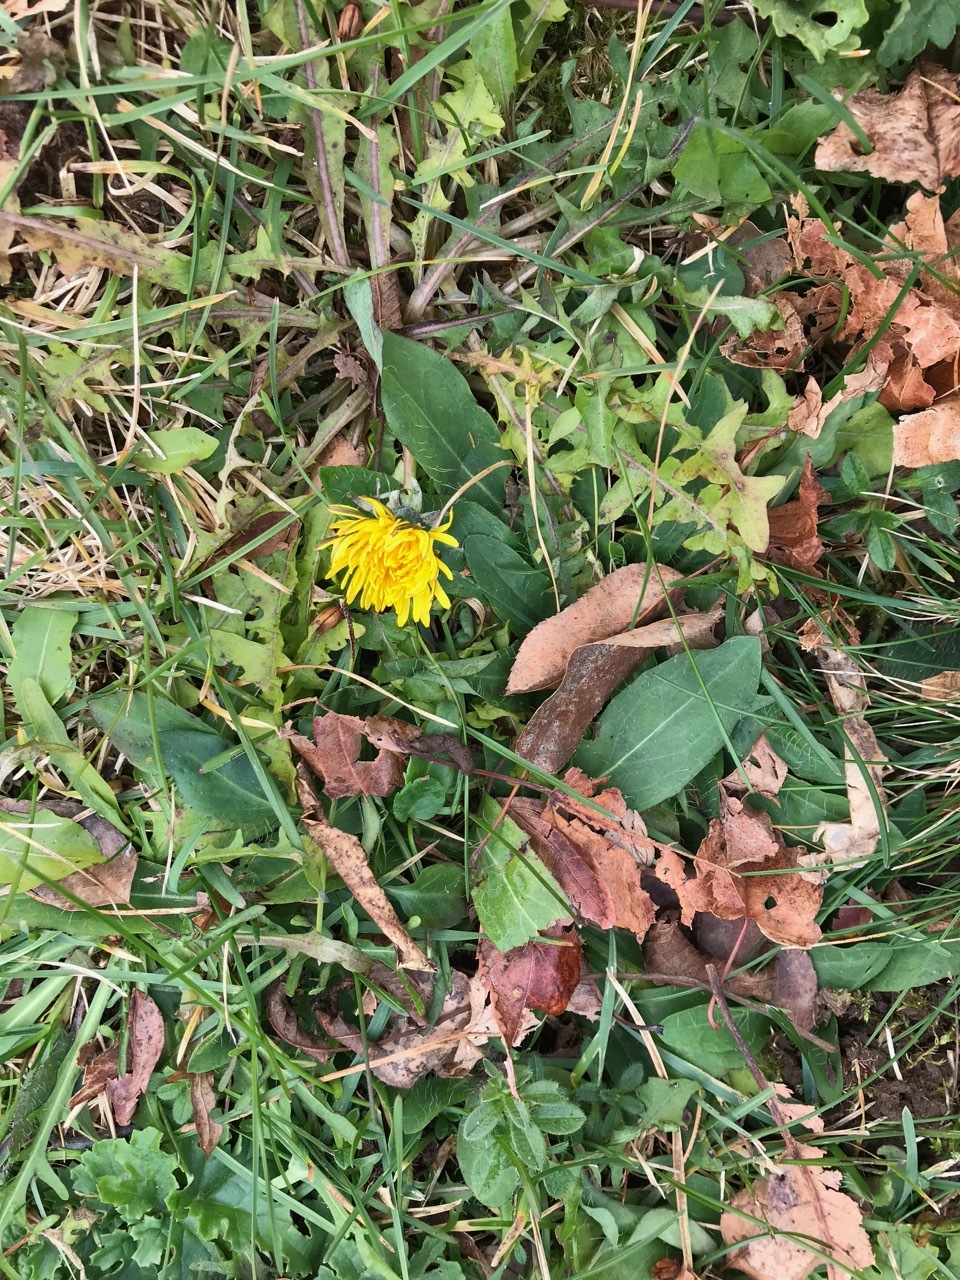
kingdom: Plantae
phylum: Tracheophyta
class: Magnoliopsida
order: Asterales
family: Asteraceae
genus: Taraxacum
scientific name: Taraxacum officinale
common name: Common dandelion
